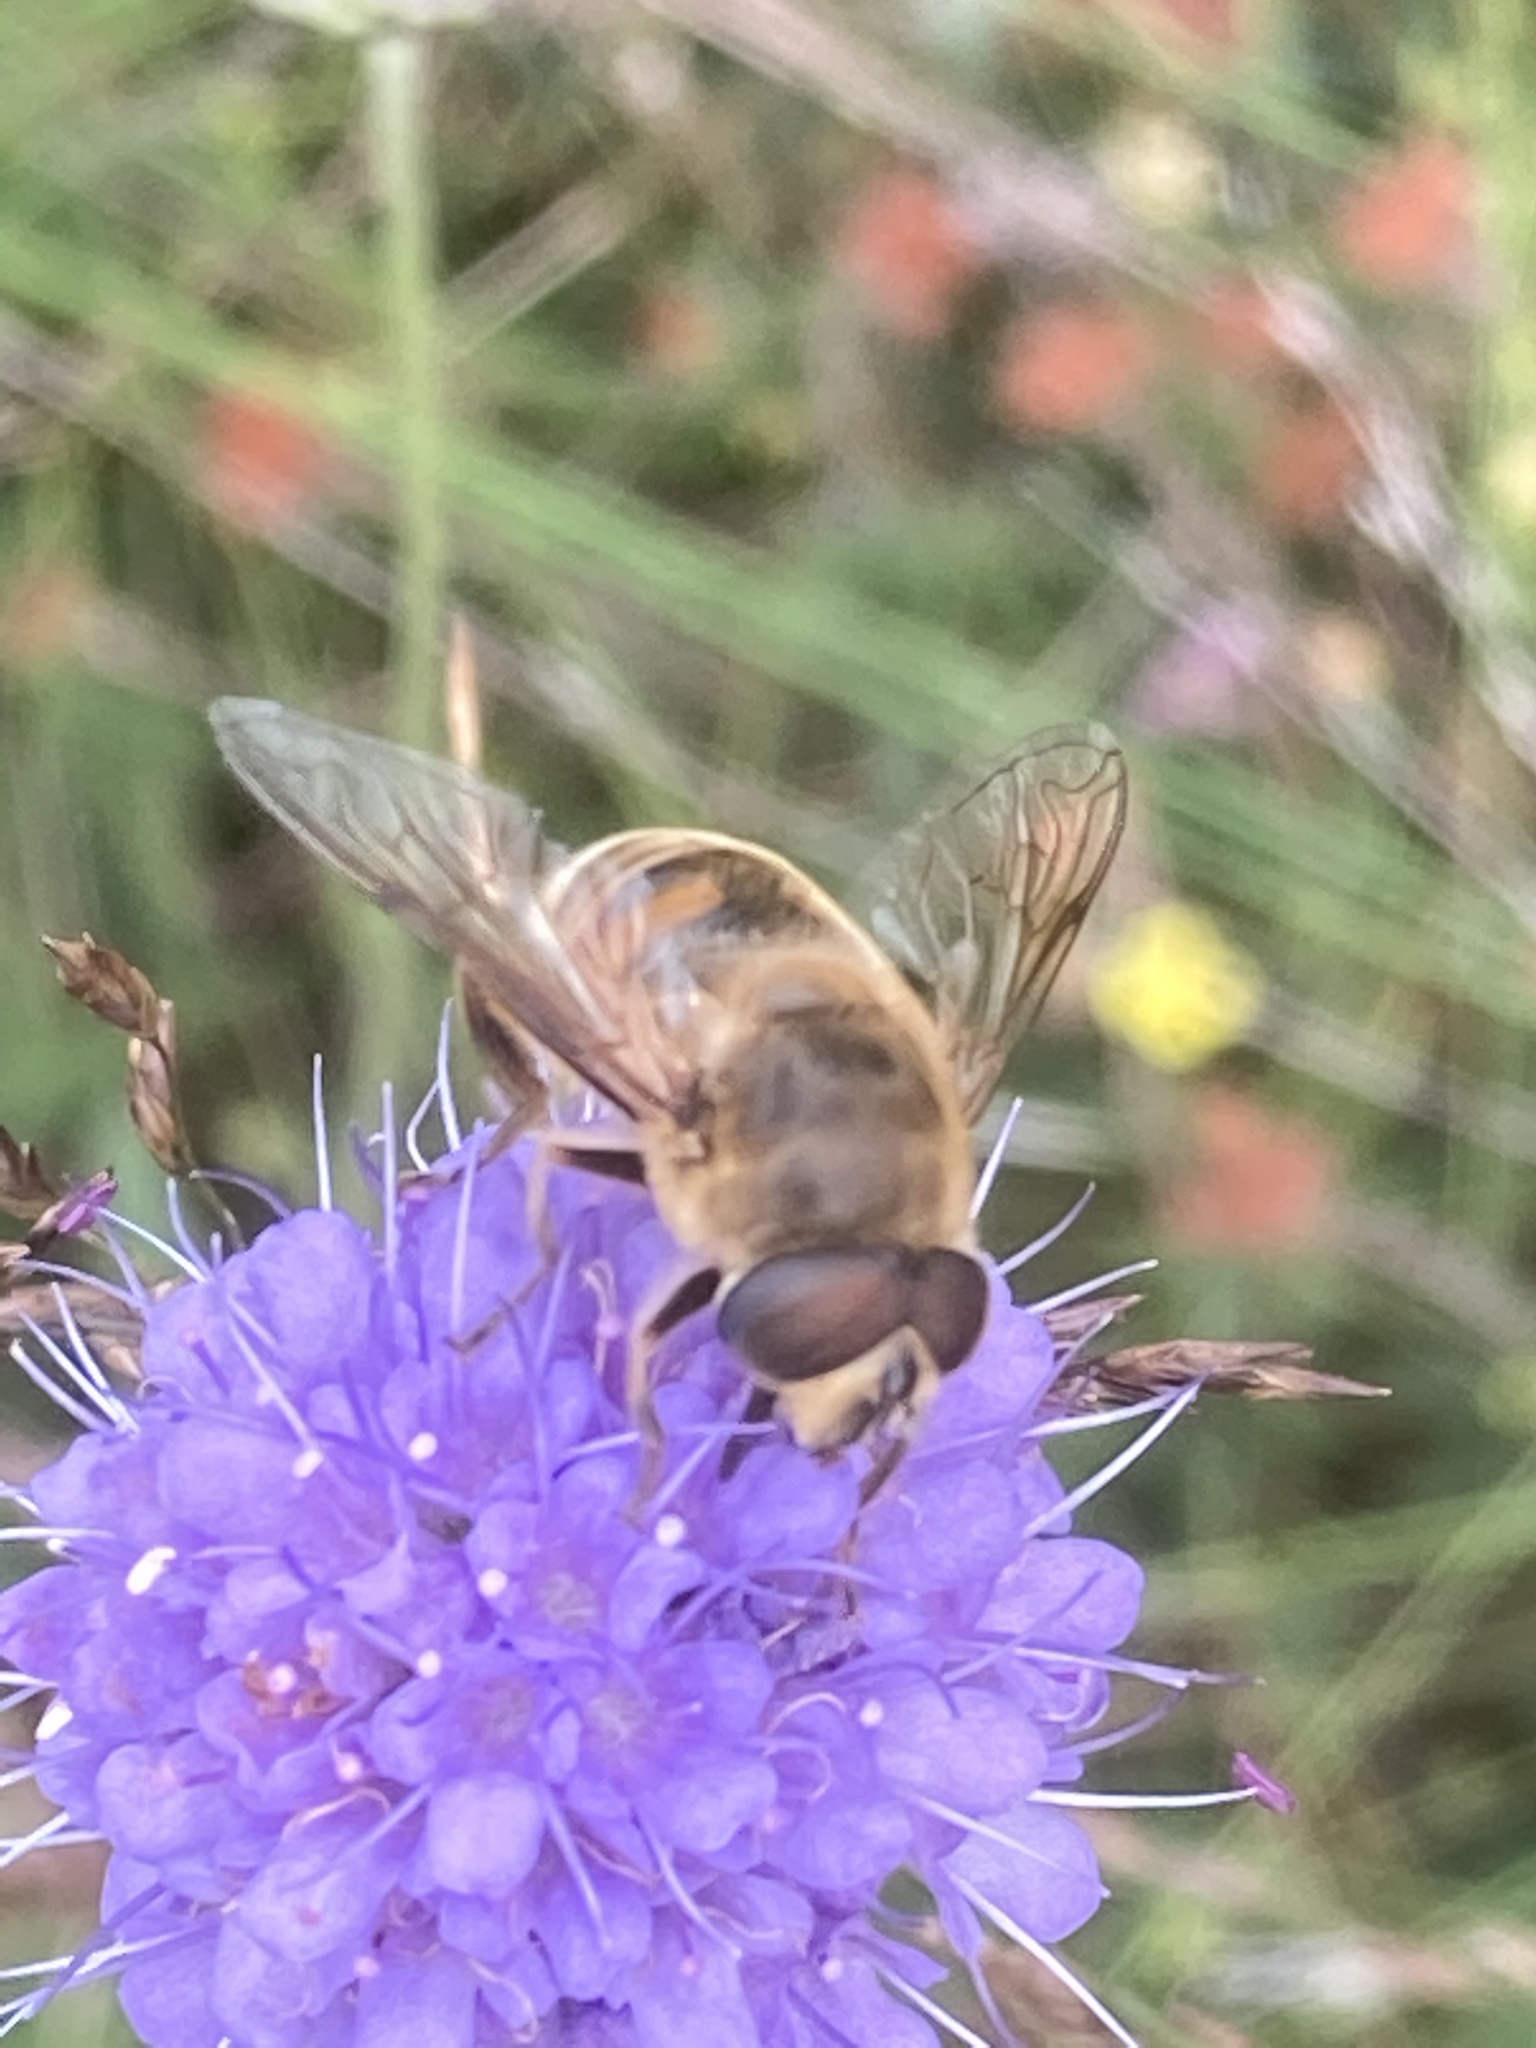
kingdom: Animalia
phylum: Arthropoda
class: Insecta
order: Diptera
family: Syrphidae
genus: Eristalis
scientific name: Eristalis tenax
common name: Drone fly
